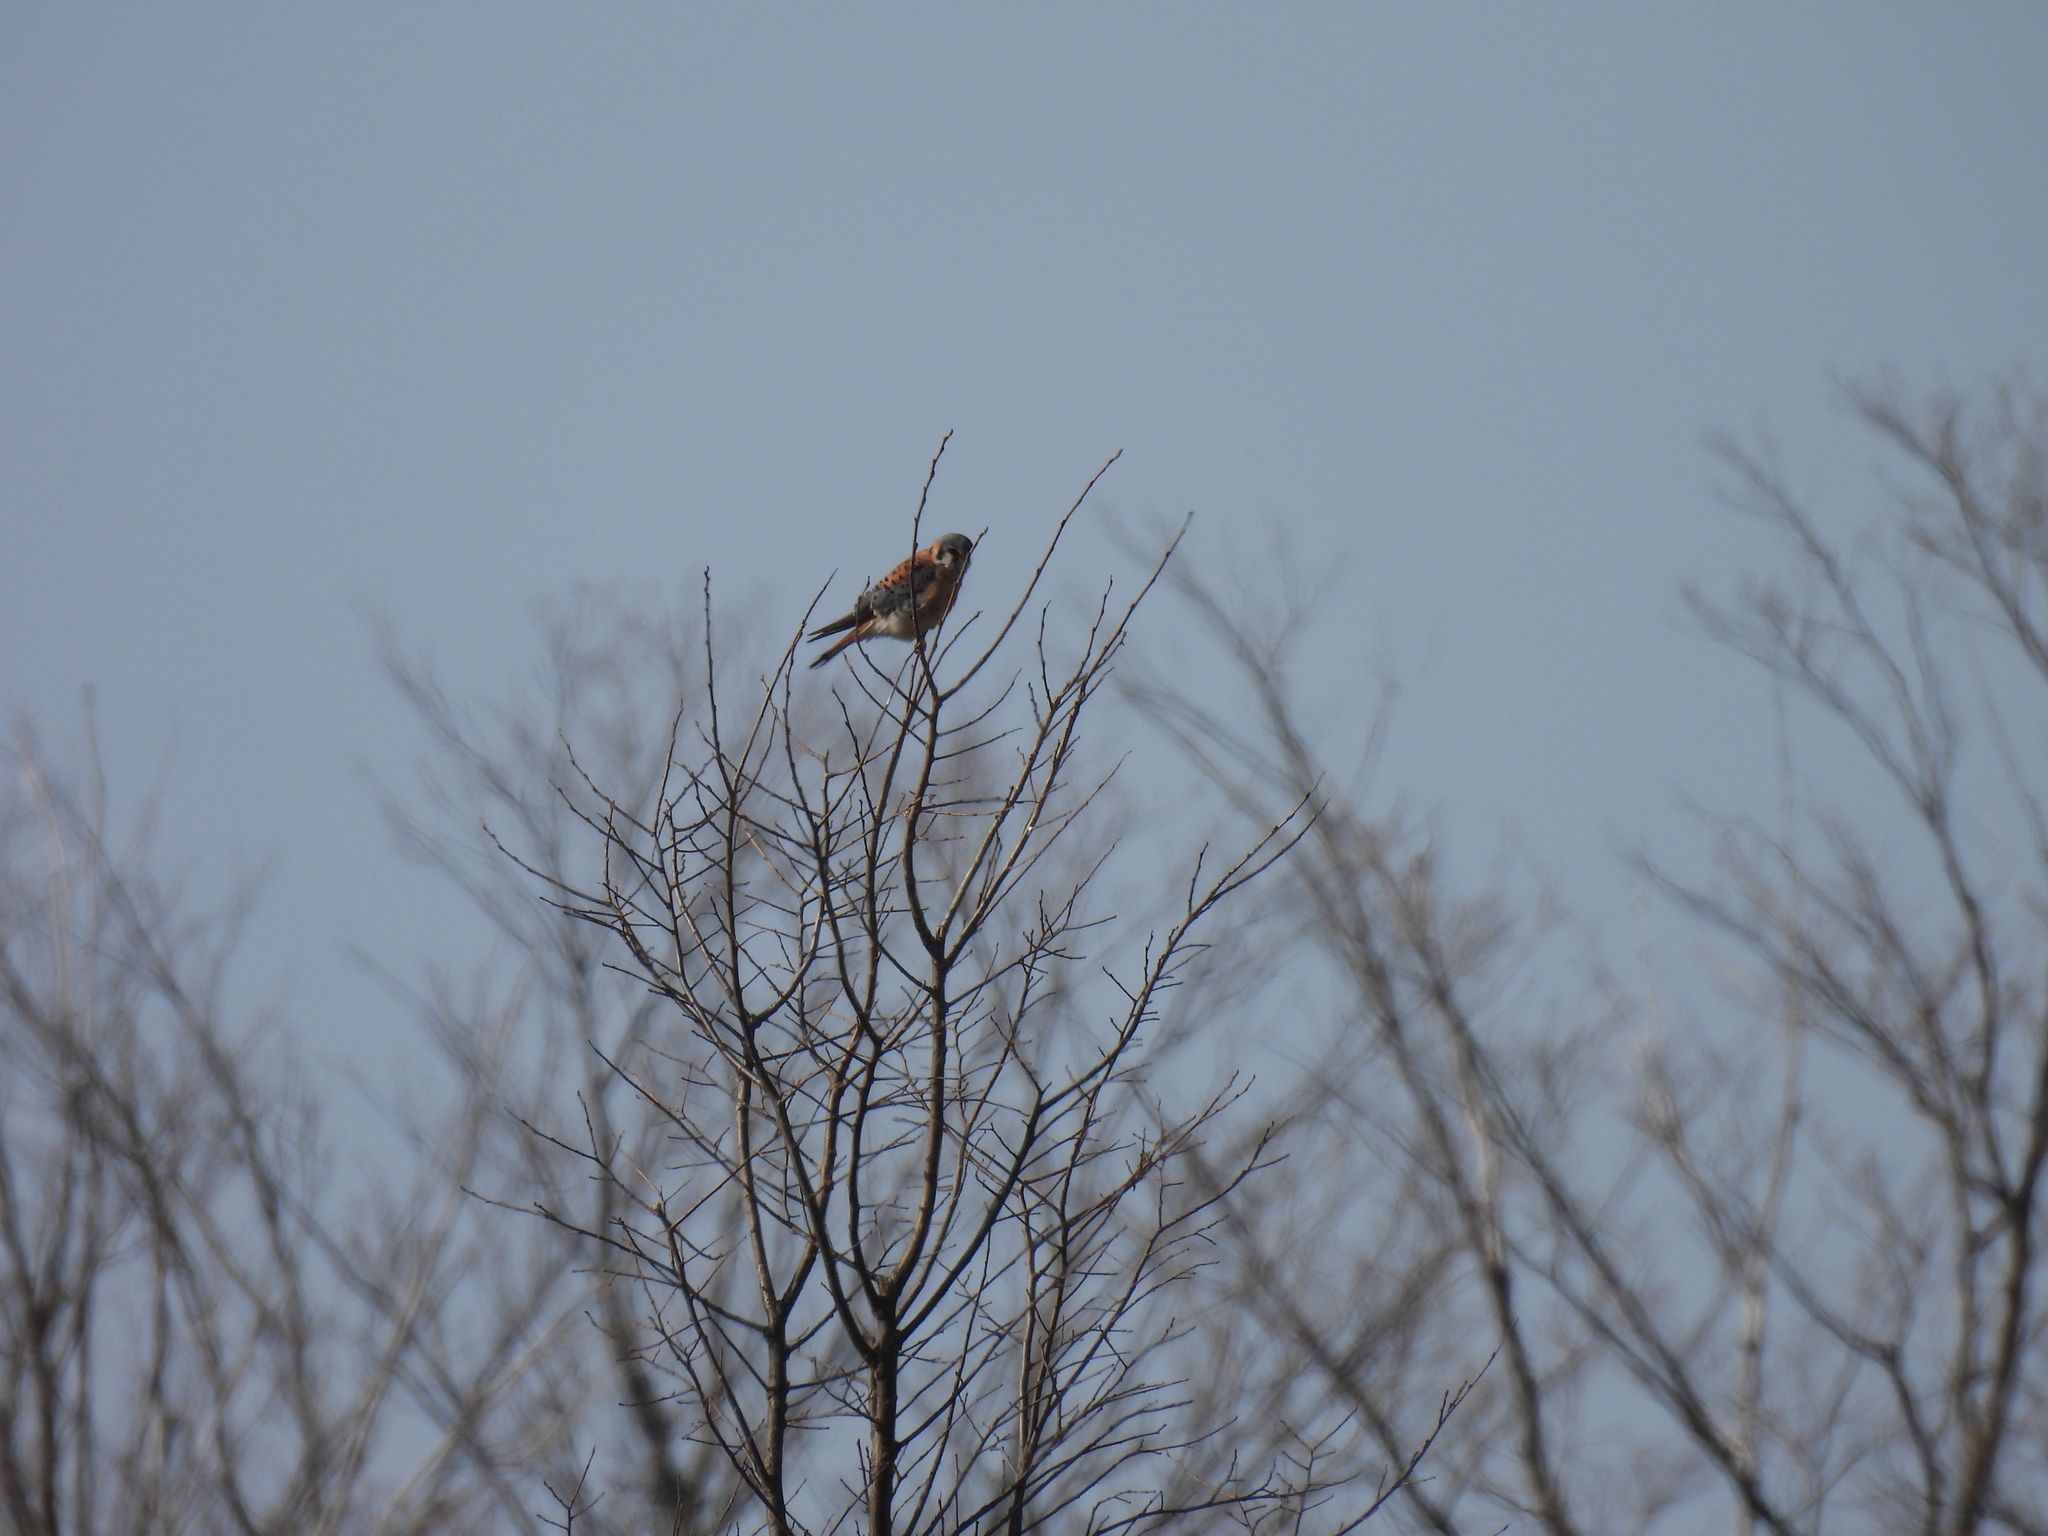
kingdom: Animalia
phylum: Chordata
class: Aves
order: Falconiformes
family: Falconidae
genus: Falco
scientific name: Falco sparverius
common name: American kestrel
